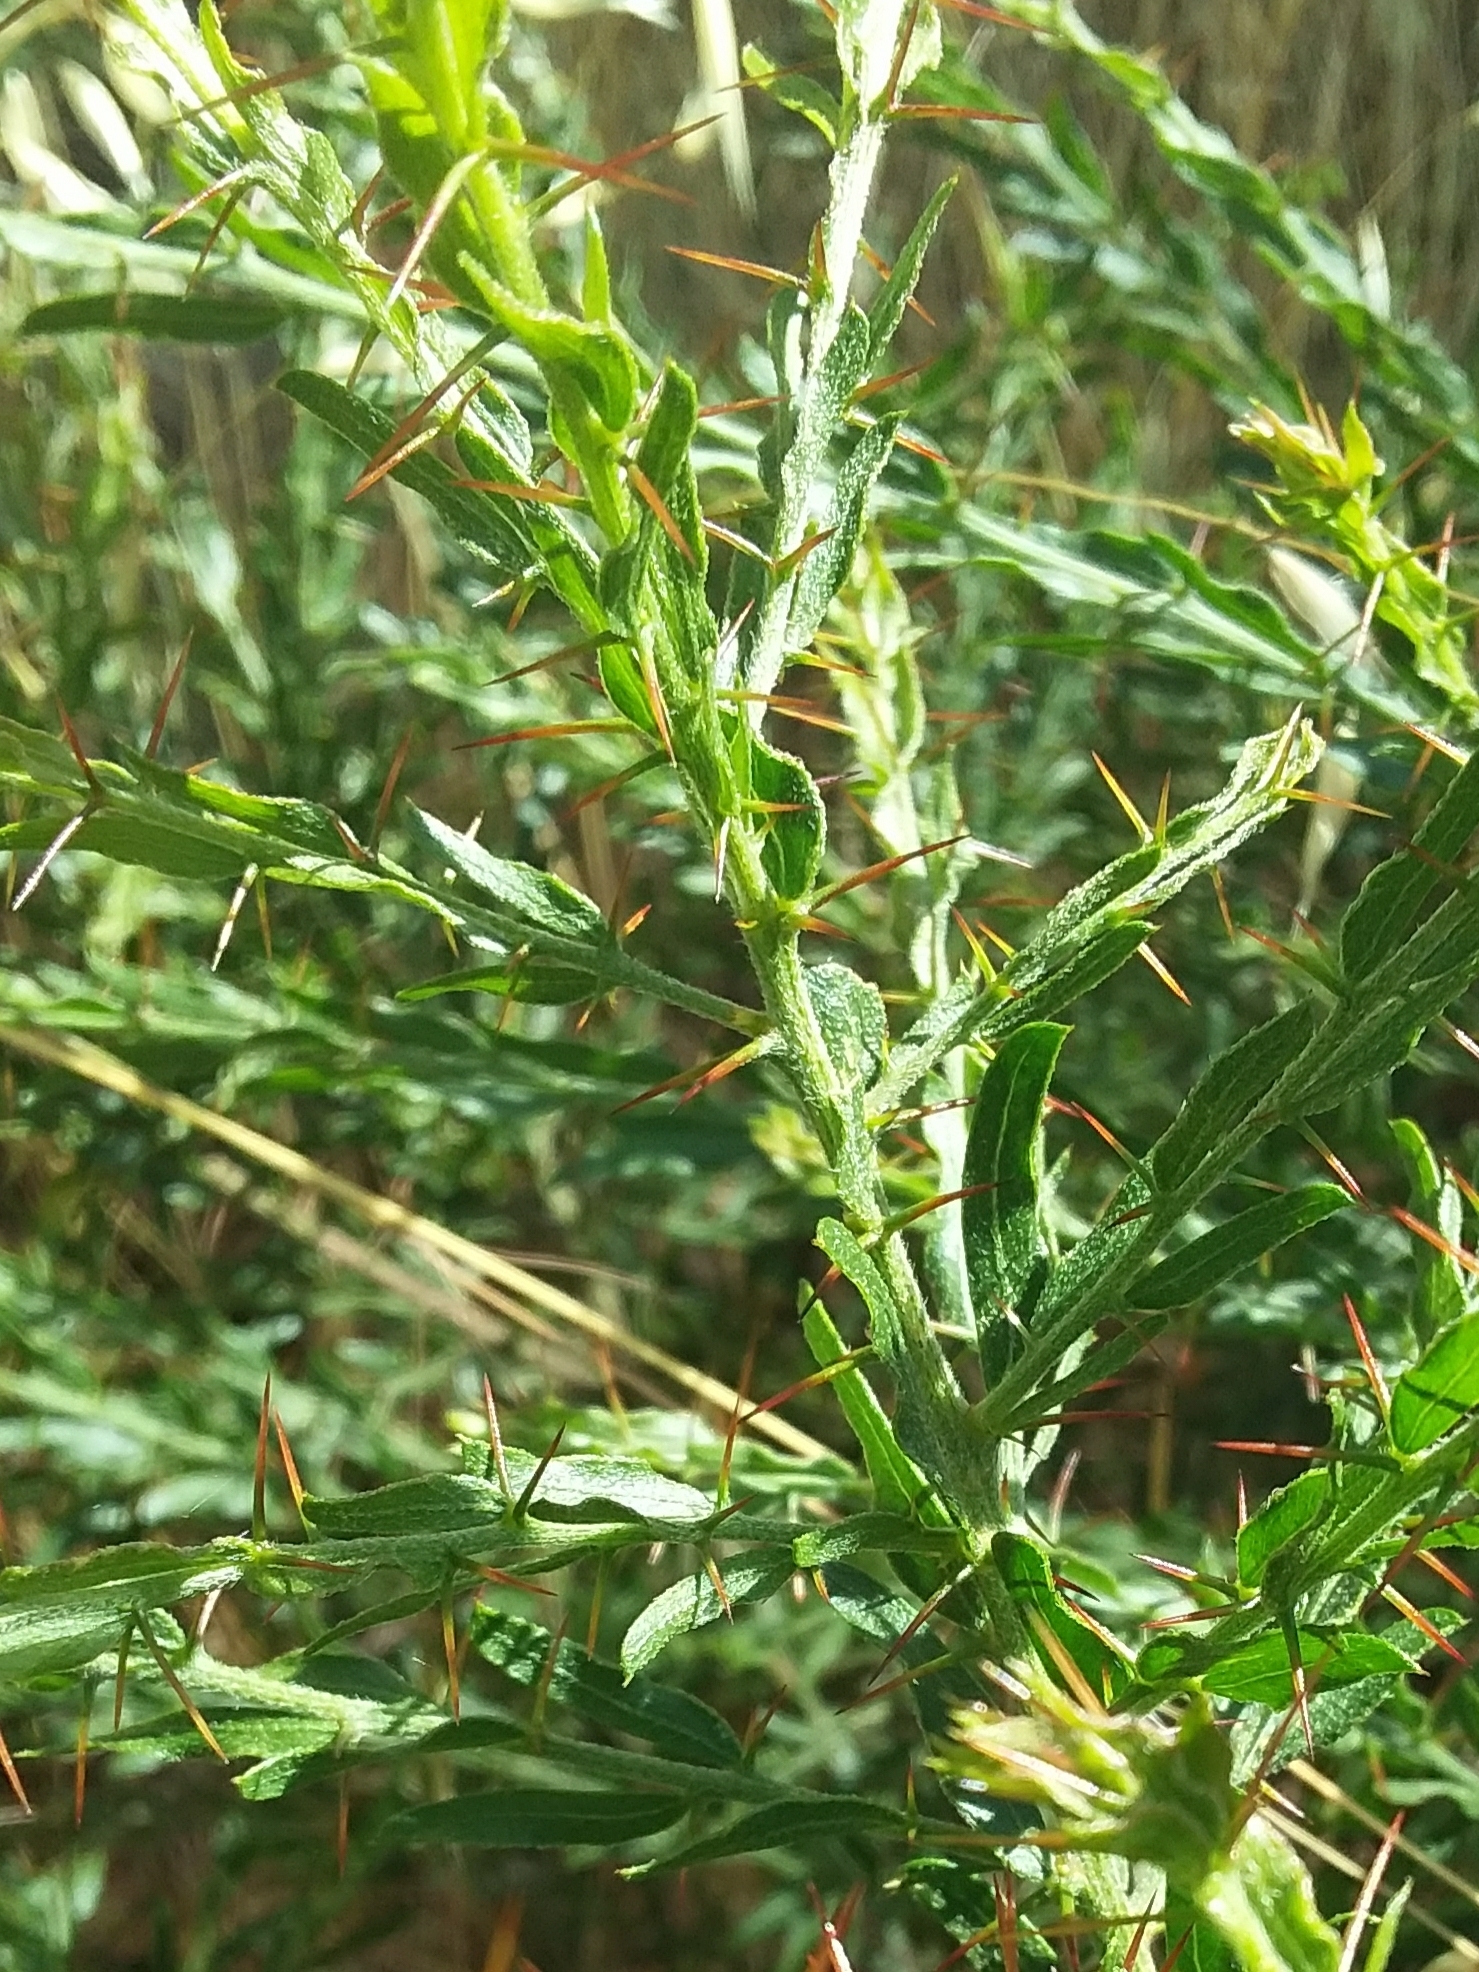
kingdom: Plantae
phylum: Tracheophyta
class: Magnoliopsida
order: Fabales
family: Fabaceae
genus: Acacia
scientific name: Acacia paradoxa
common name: Paradox acacia
